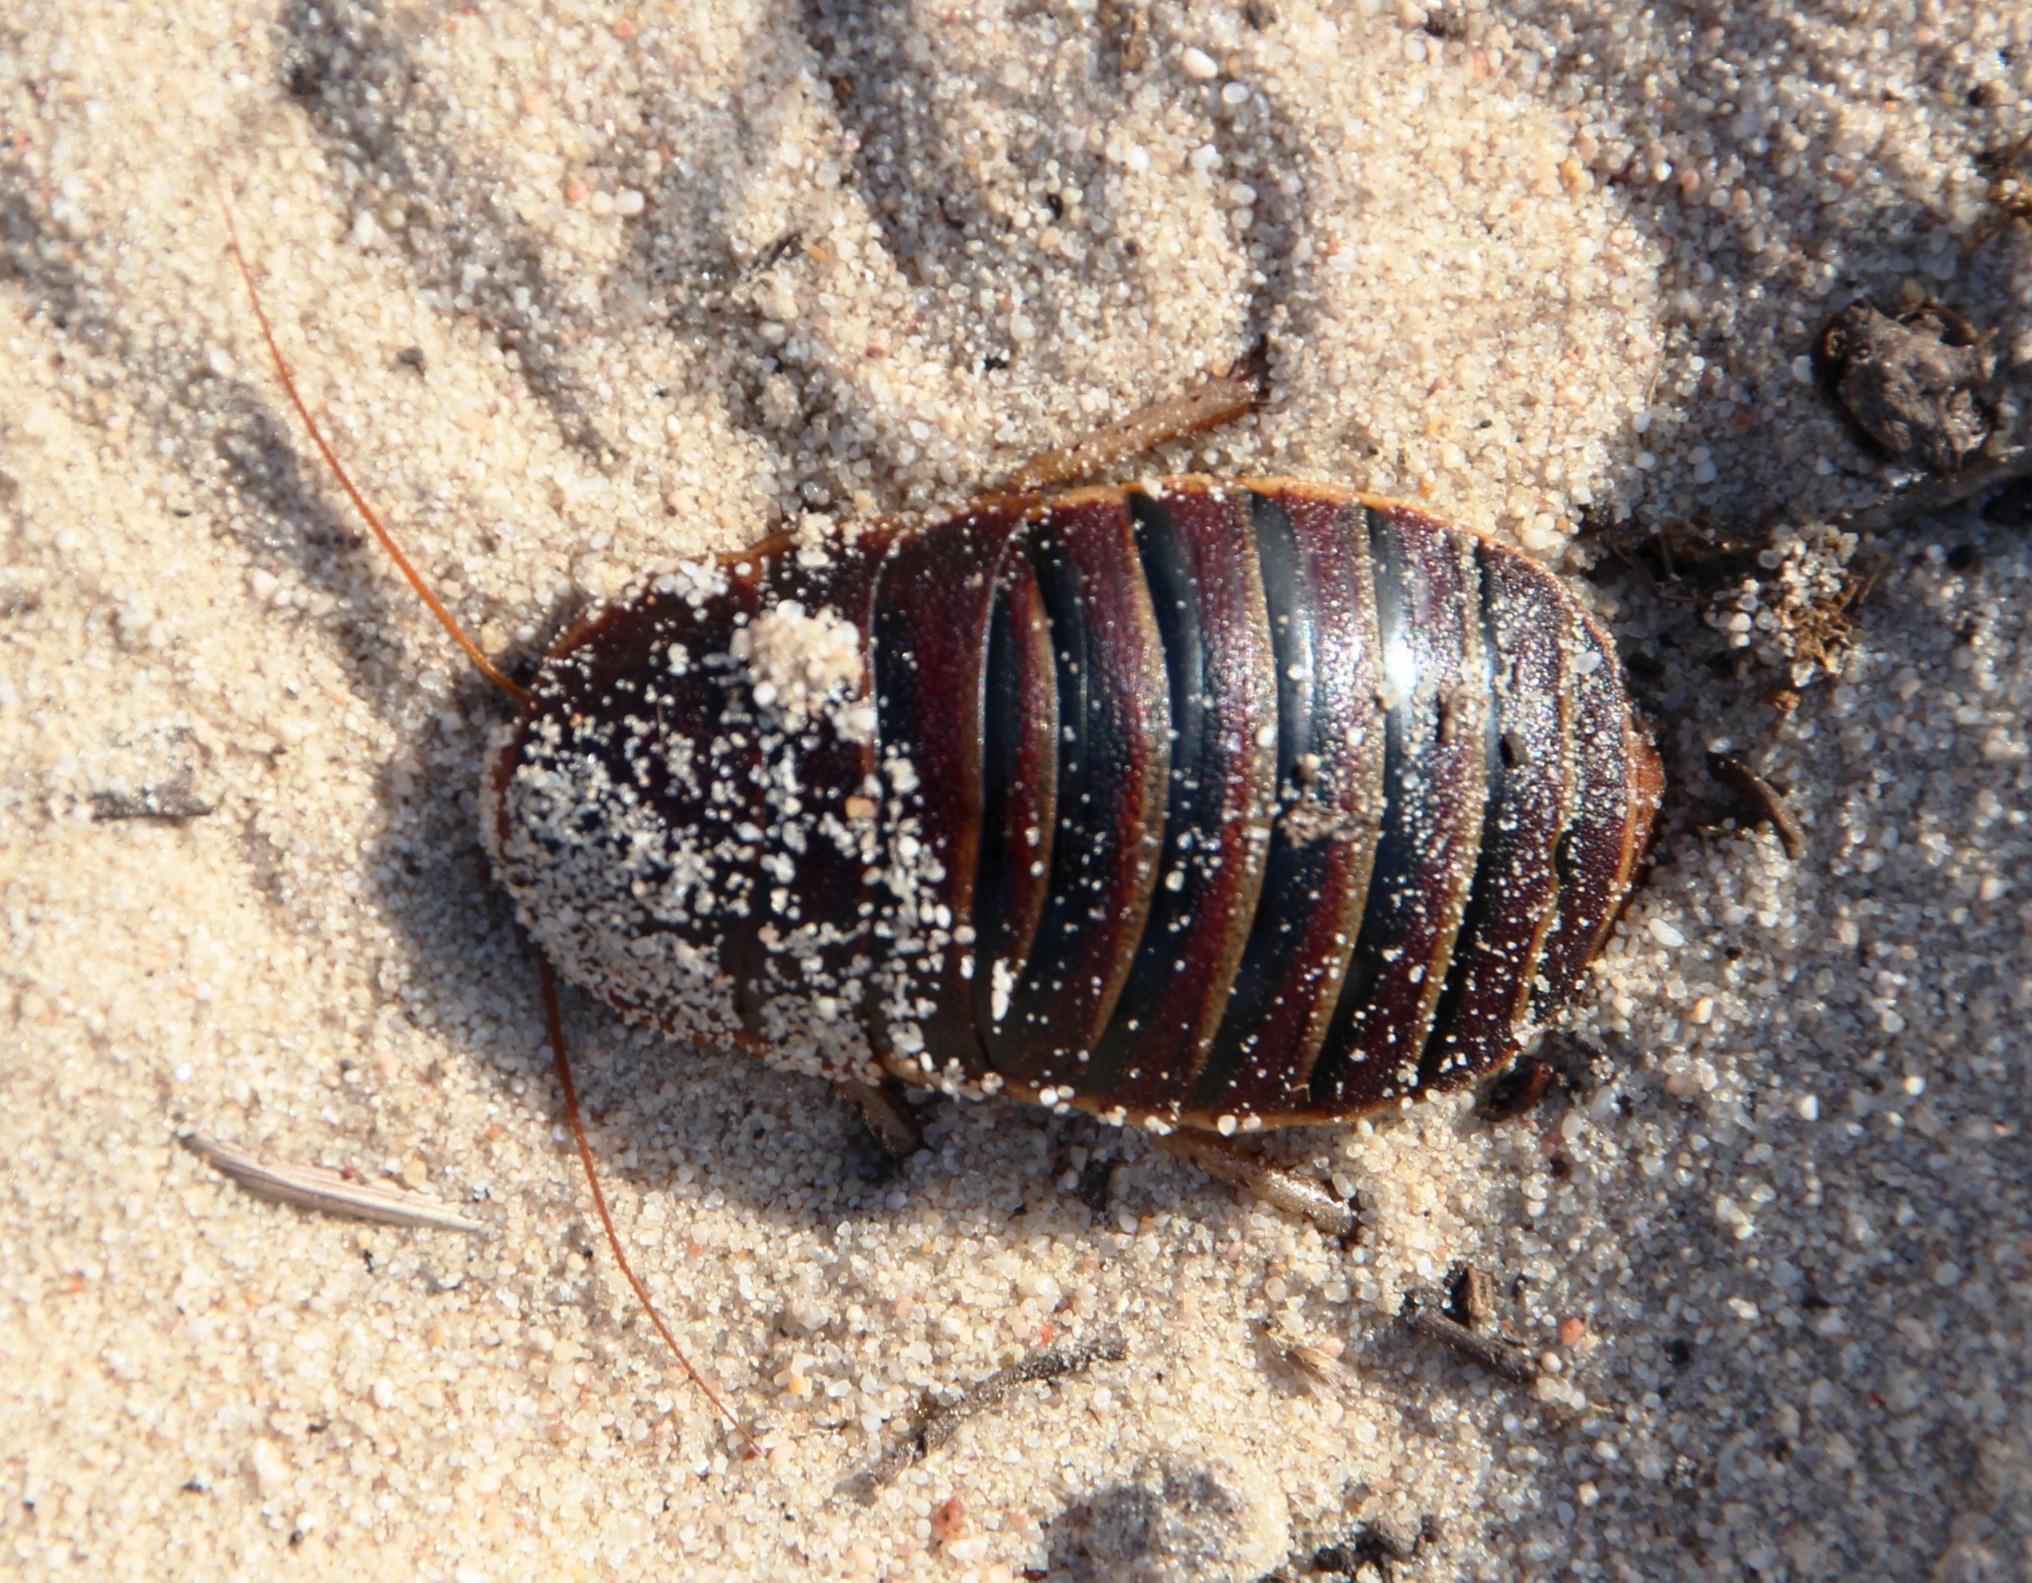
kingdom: Animalia
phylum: Arthropoda
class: Insecta
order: Blattodea
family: Blaberidae
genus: Aptera
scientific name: Aptera fusca
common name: Cape mountain cockroach
